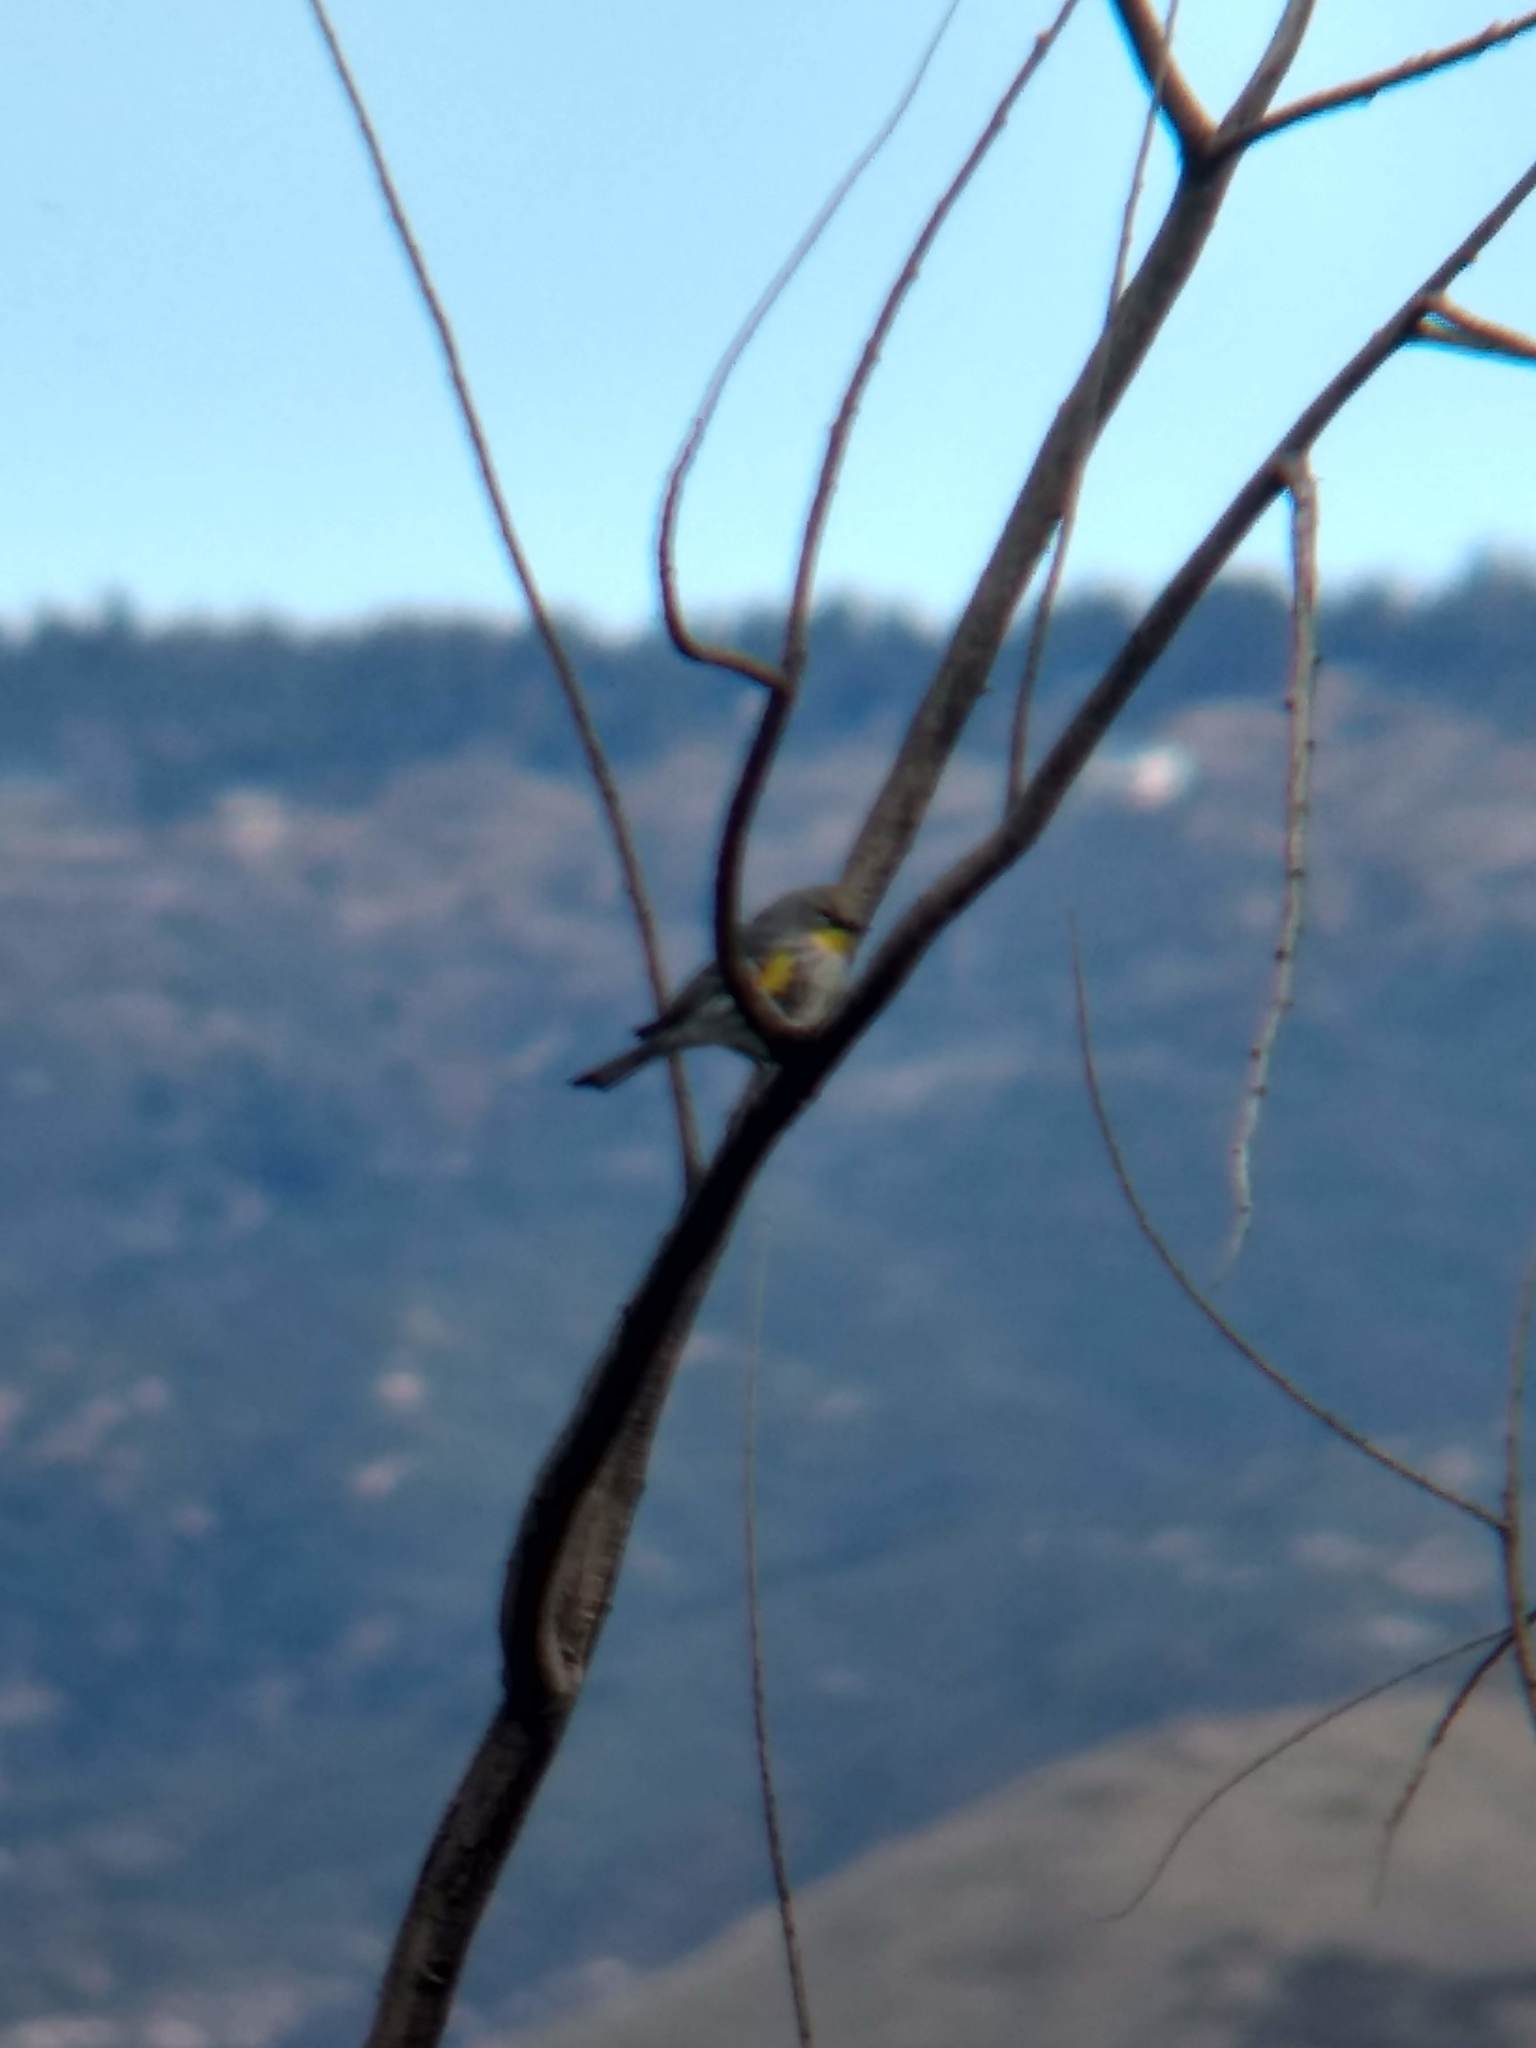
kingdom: Animalia
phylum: Chordata
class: Aves
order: Passeriformes
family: Parulidae
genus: Setophaga
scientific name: Setophaga coronata
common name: Myrtle warbler
